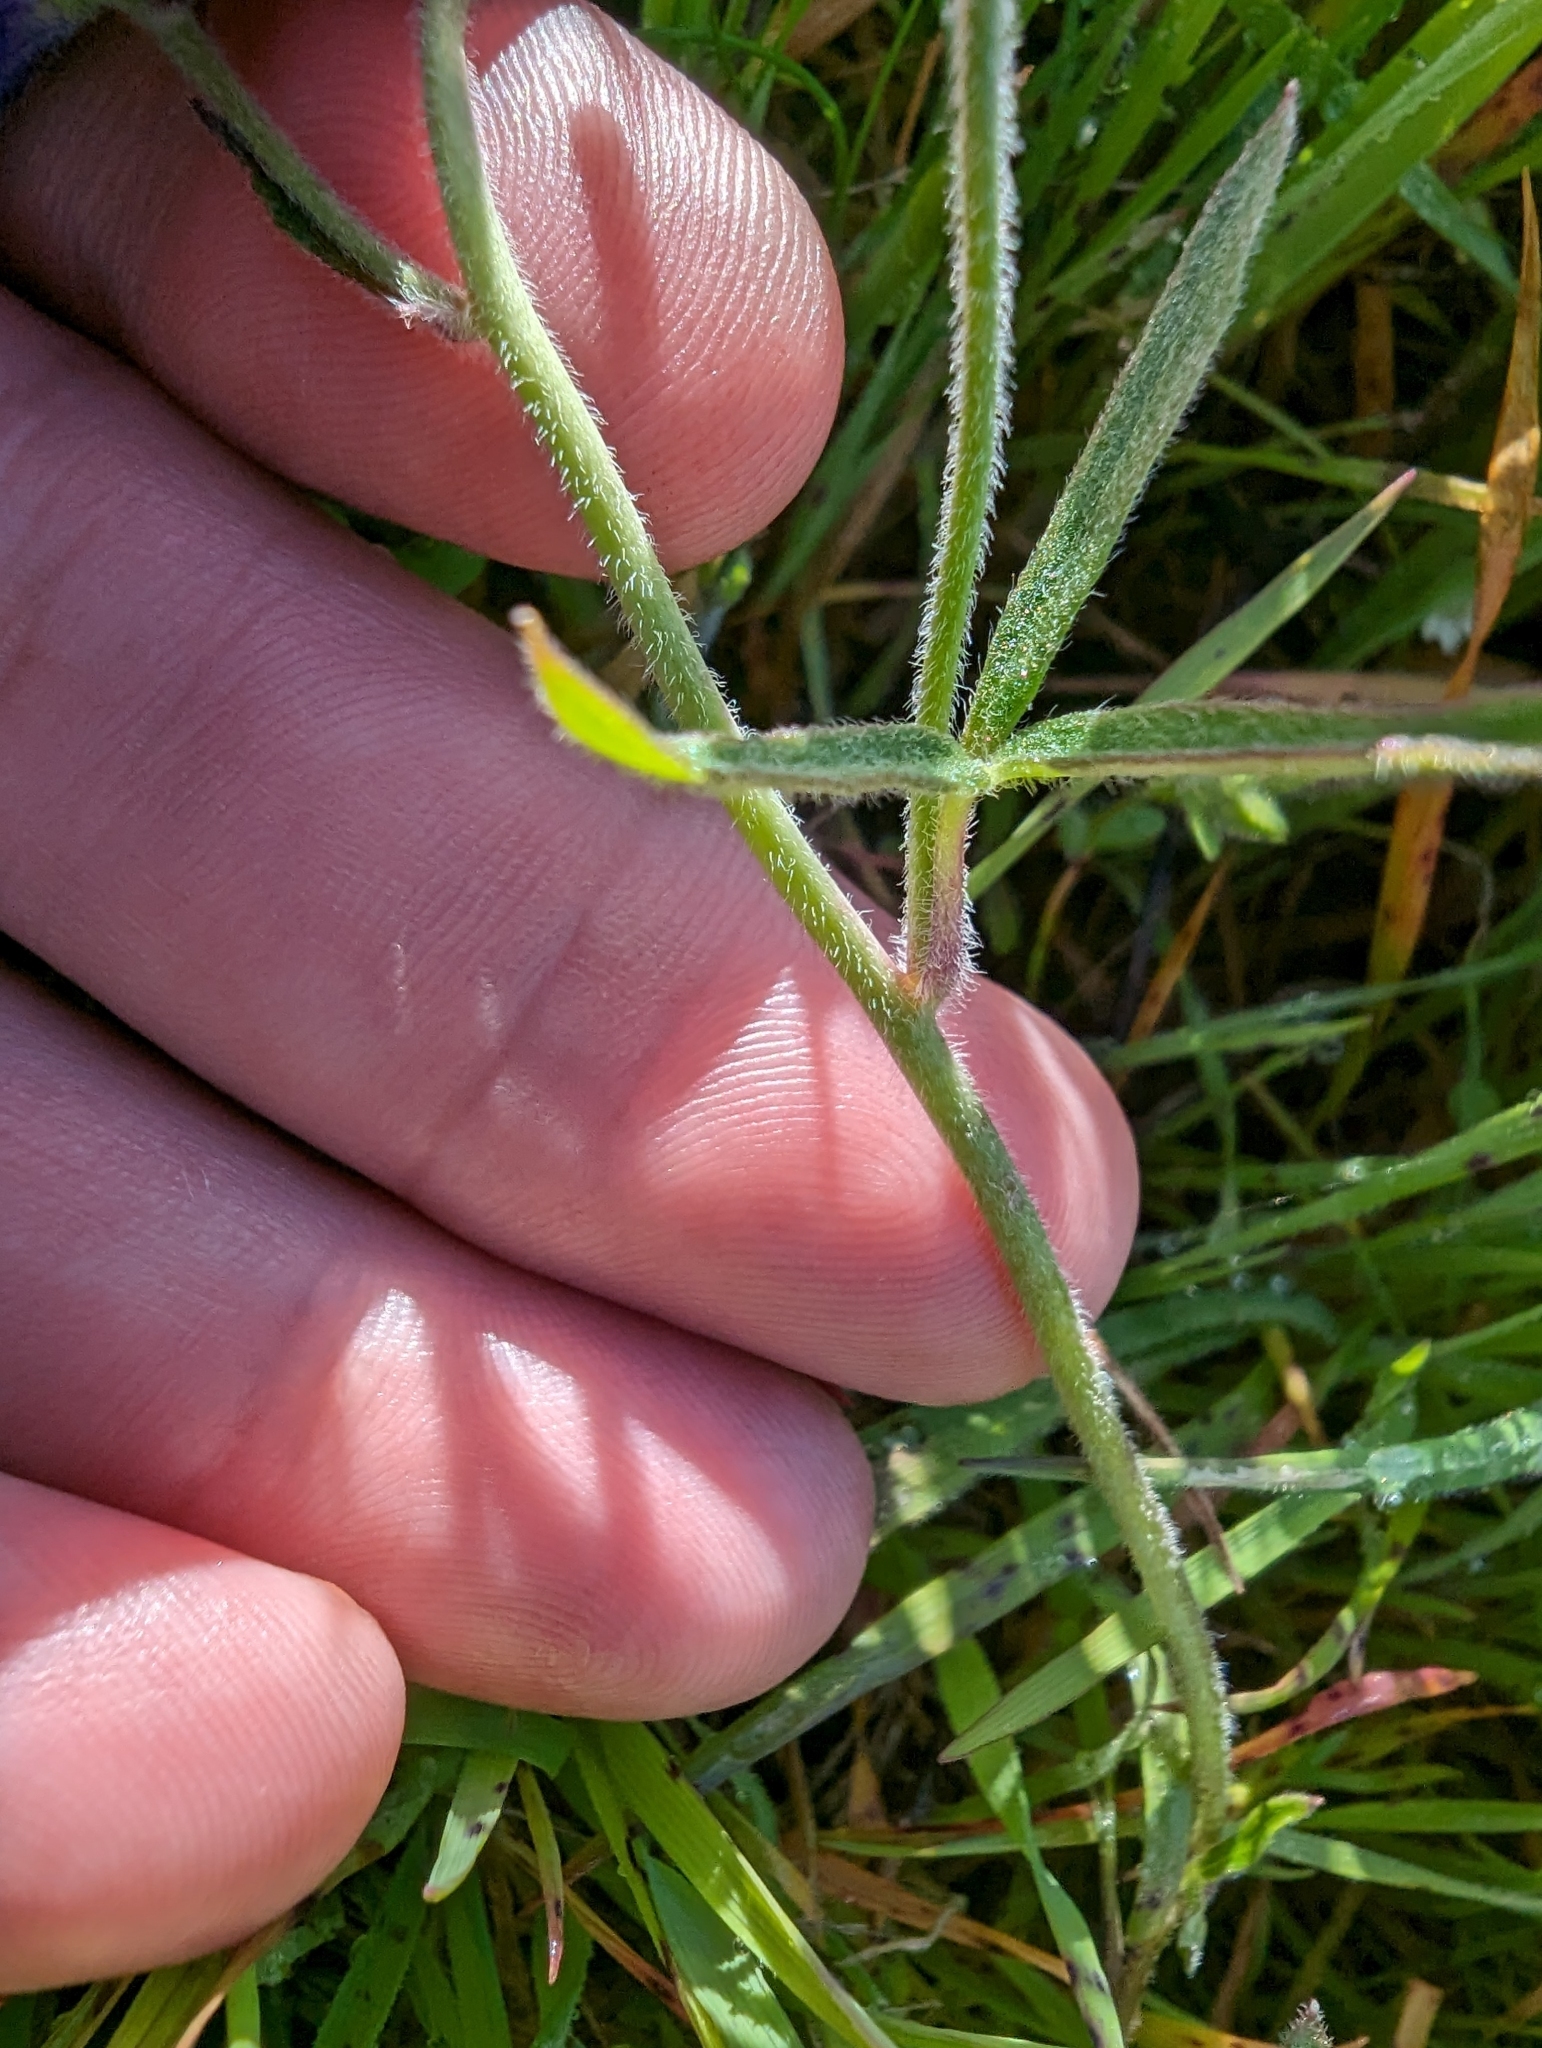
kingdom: Plantae
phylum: Tracheophyta
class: Magnoliopsida
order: Ranunculales
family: Ranunculaceae
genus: Delphinium
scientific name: Delphinium decorum
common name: Coast larkspur
